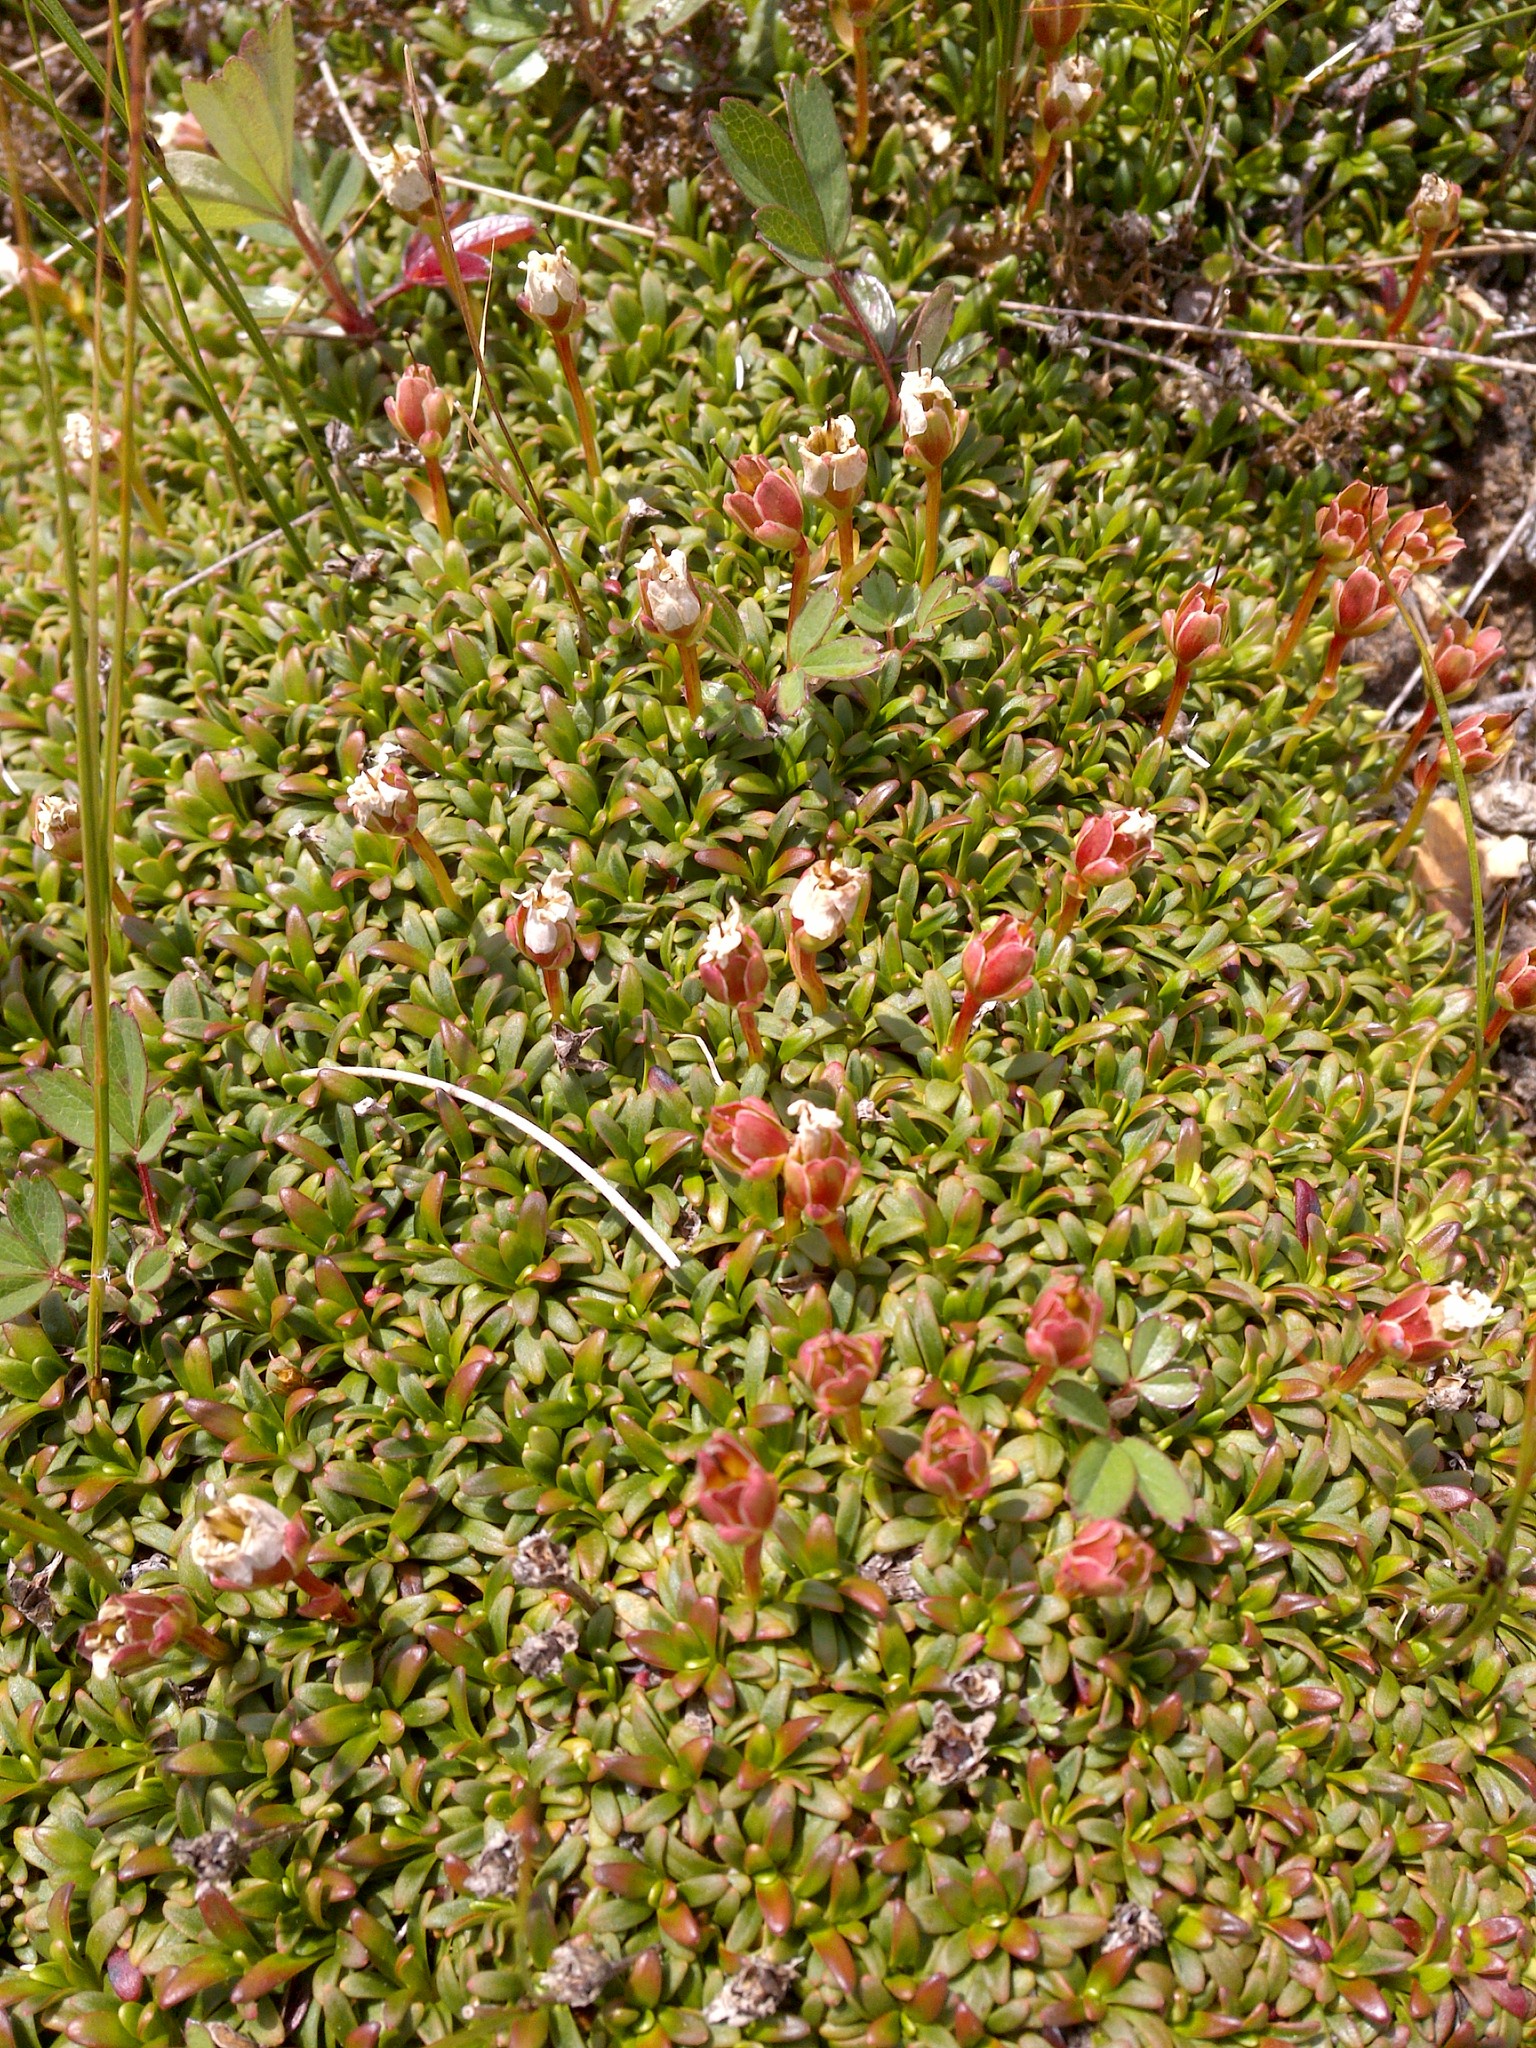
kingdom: Plantae
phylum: Tracheophyta
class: Magnoliopsida
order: Ericales
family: Diapensiaceae
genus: Diapensia
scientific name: Diapensia lapponica
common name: Diapensia
